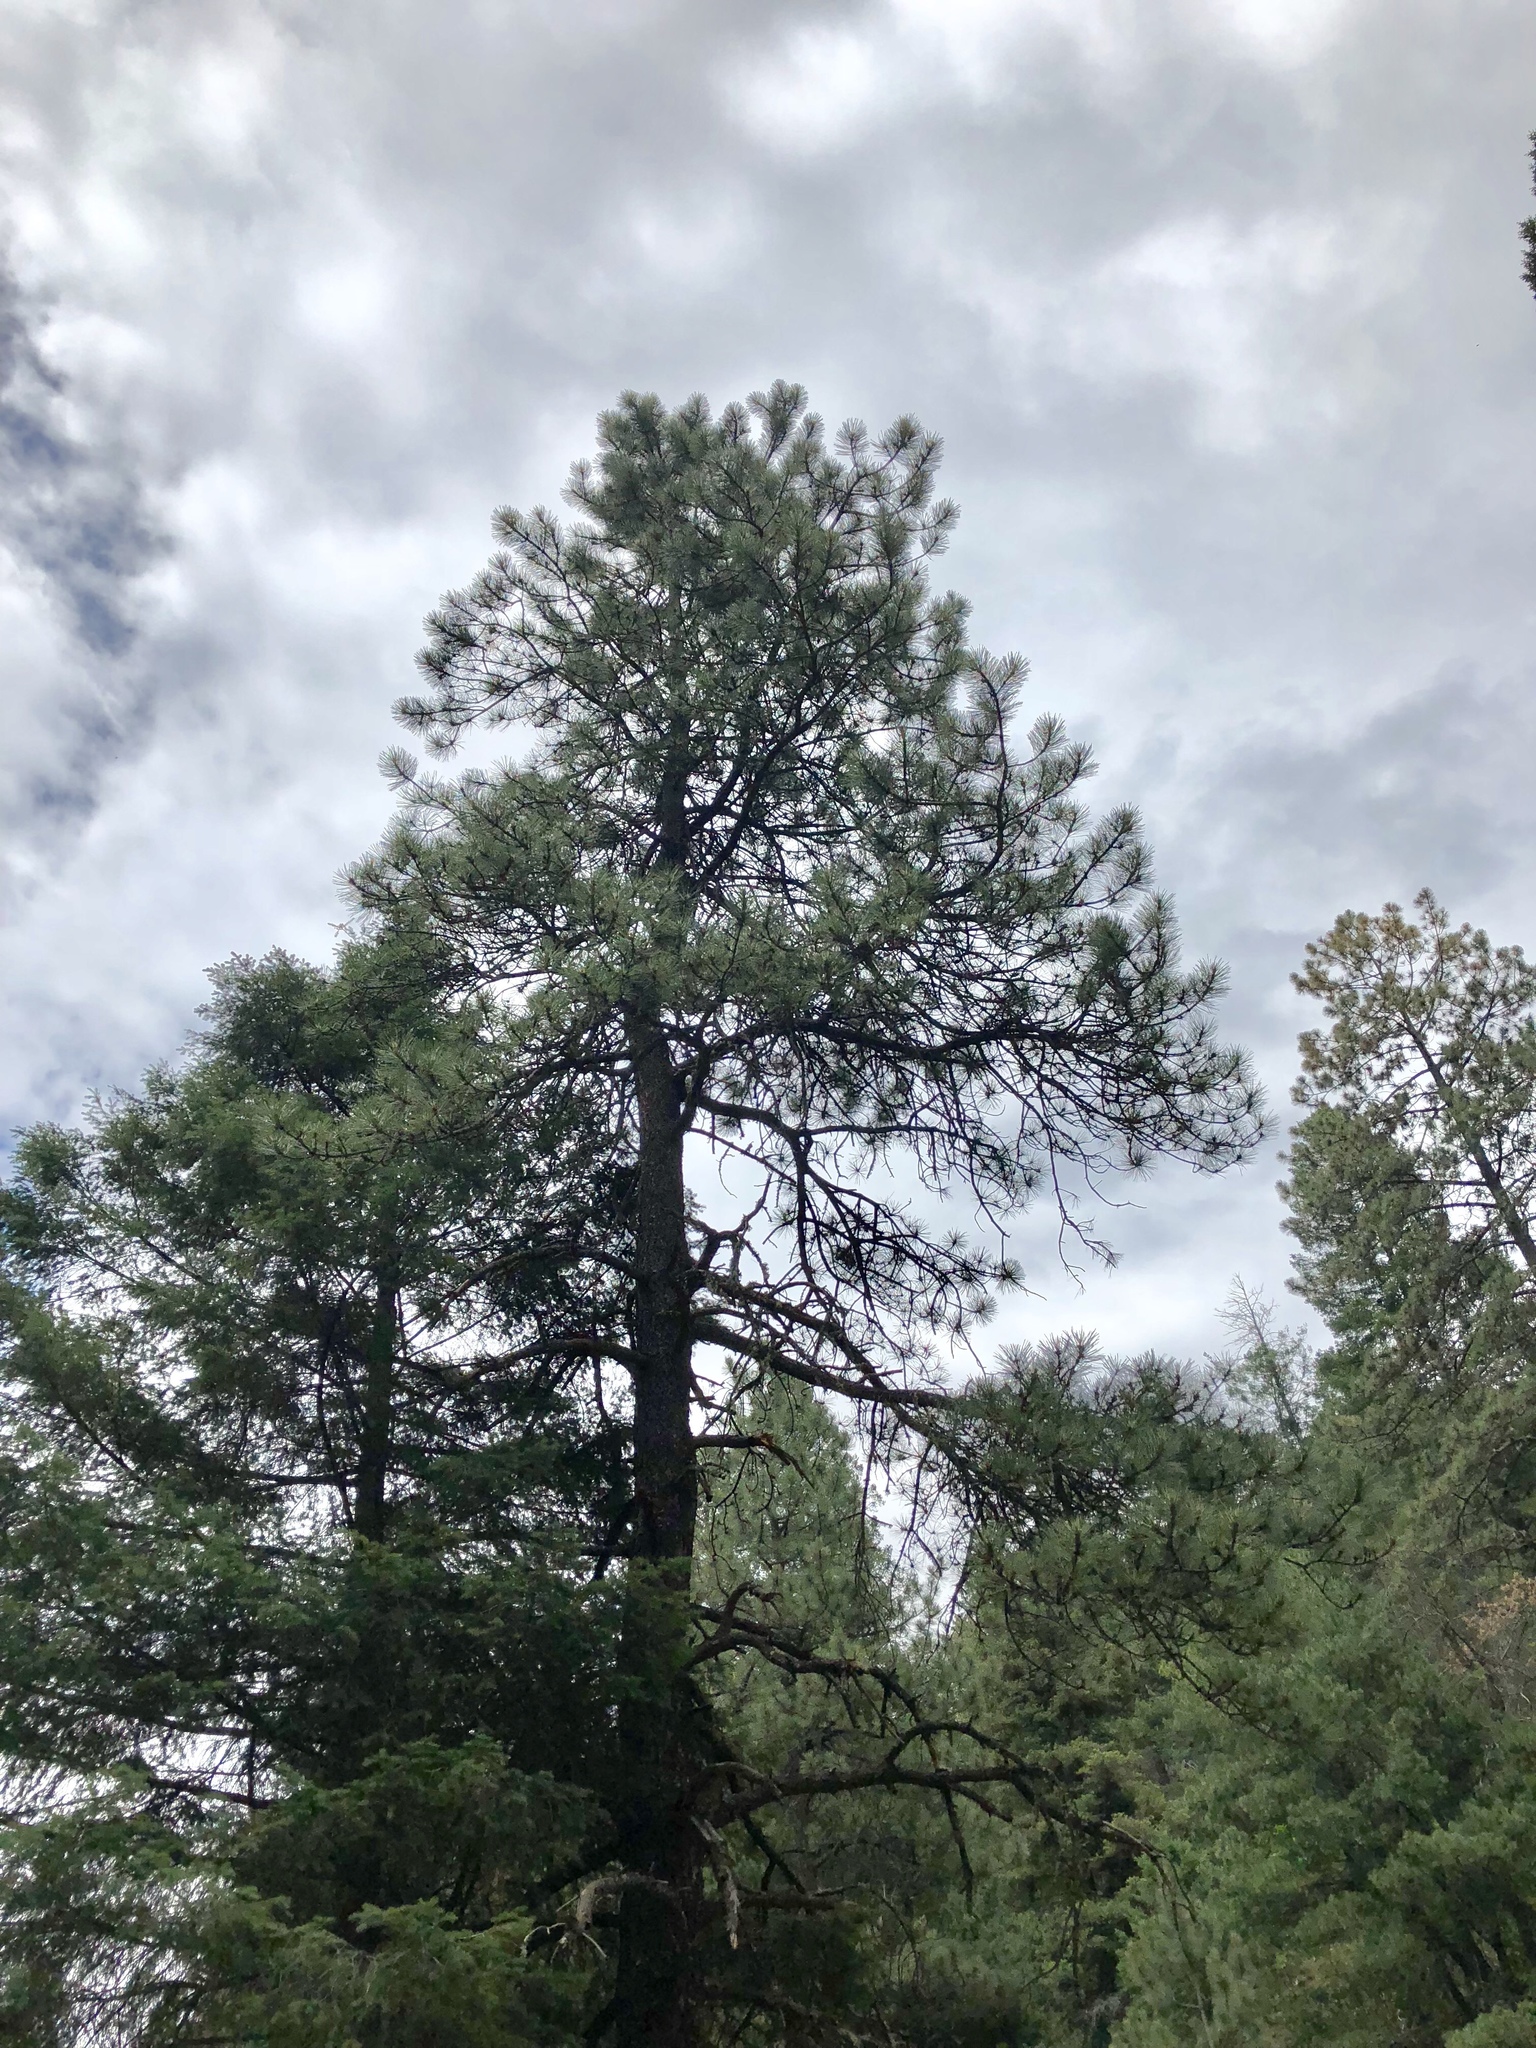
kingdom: Plantae
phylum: Tracheophyta
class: Pinopsida
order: Pinales
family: Pinaceae
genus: Pinus
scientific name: Pinus ponderosa
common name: Western yellow-pine
